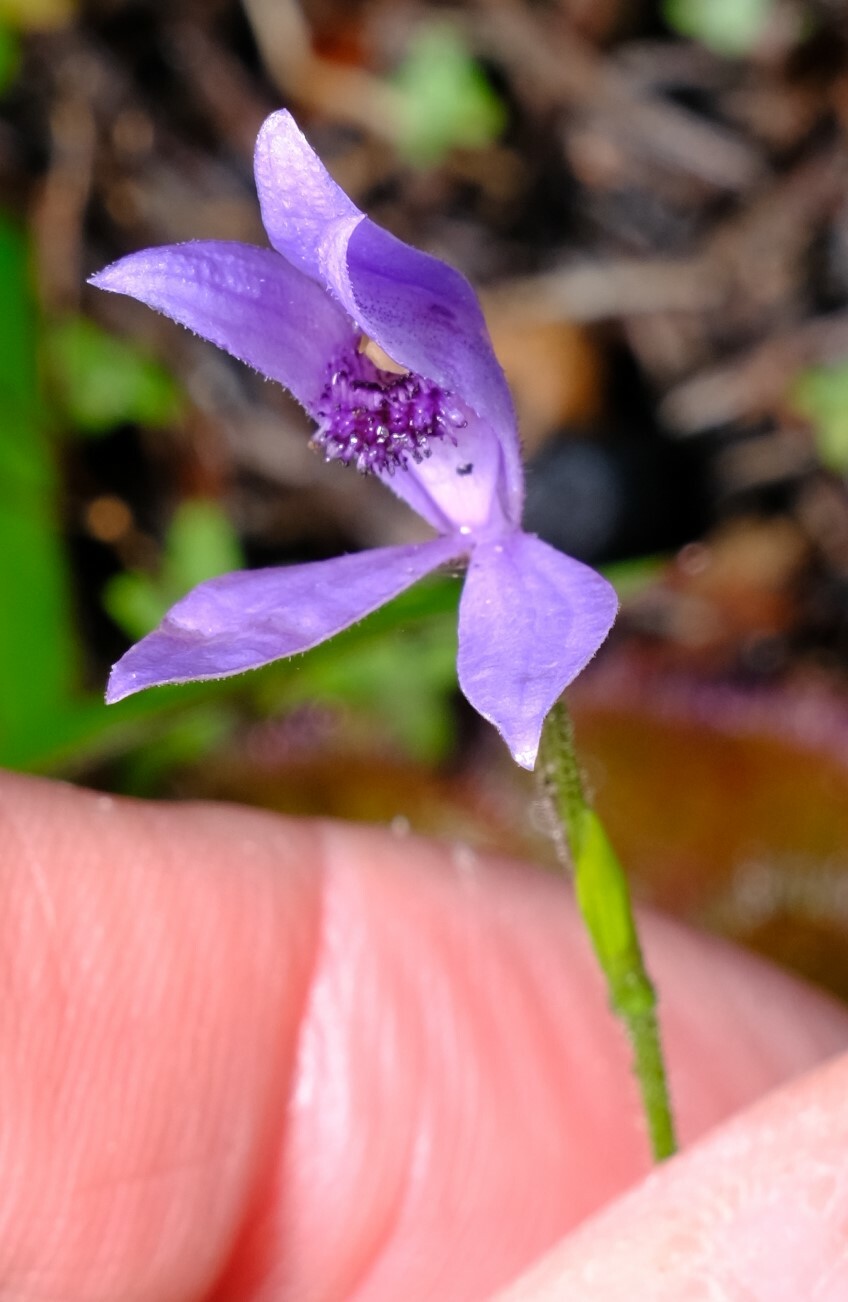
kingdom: Plantae
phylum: Tracheophyta
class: Liliopsida
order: Asparagales
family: Orchidaceae
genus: Pheladenia
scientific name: Pheladenia deformis
